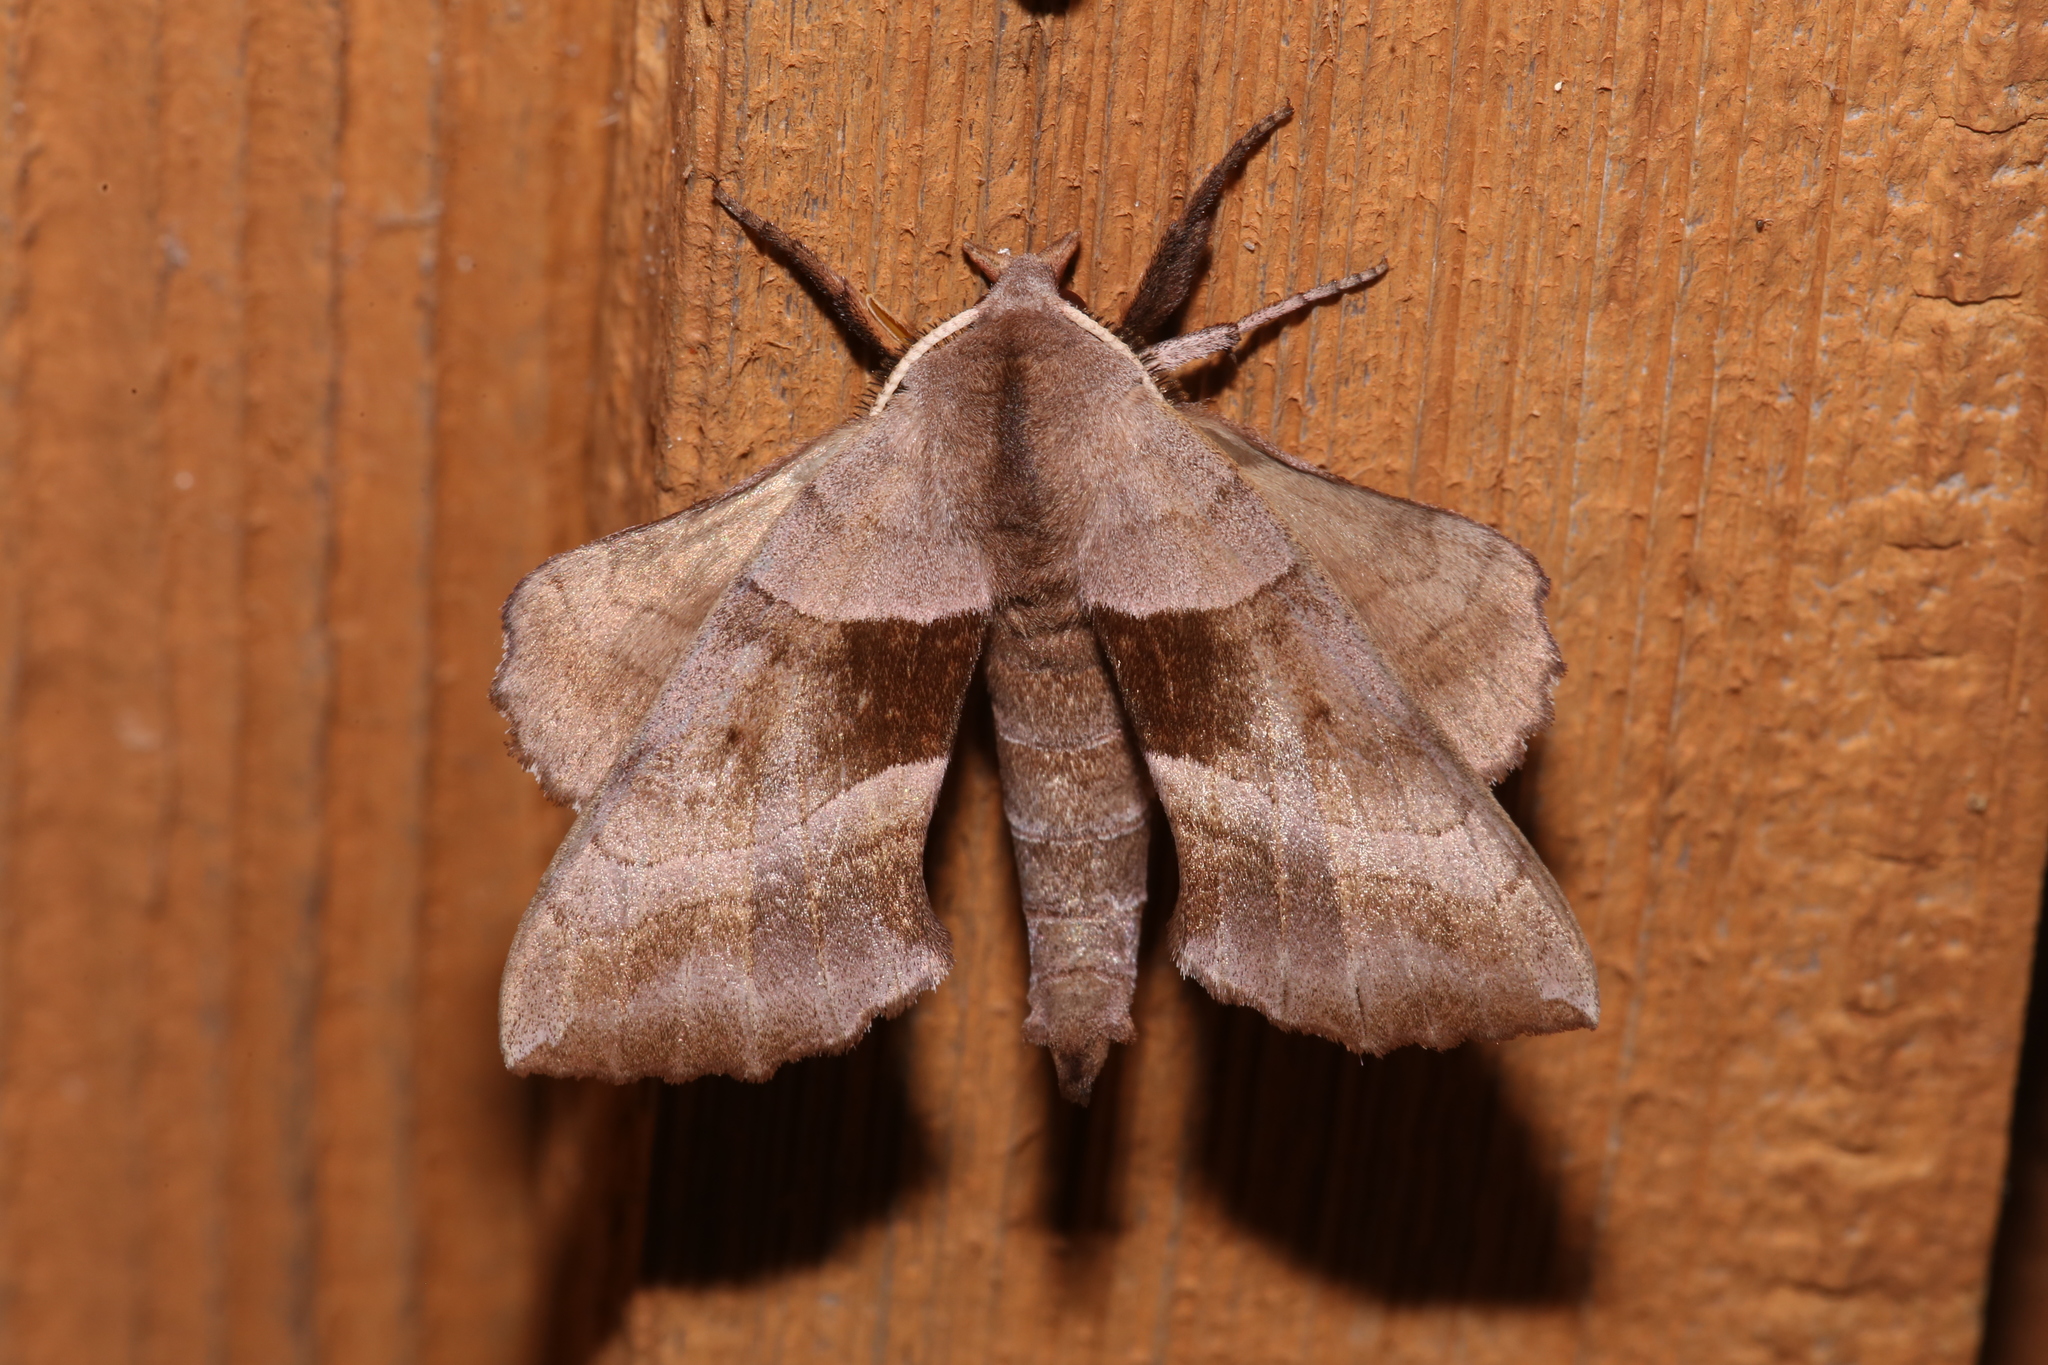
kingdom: Animalia
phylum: Arthropoda
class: Insecta
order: Lepidoptera
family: Sphingidae
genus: Amorpha
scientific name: Amorpha juglandis
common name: Walnut sphinx
